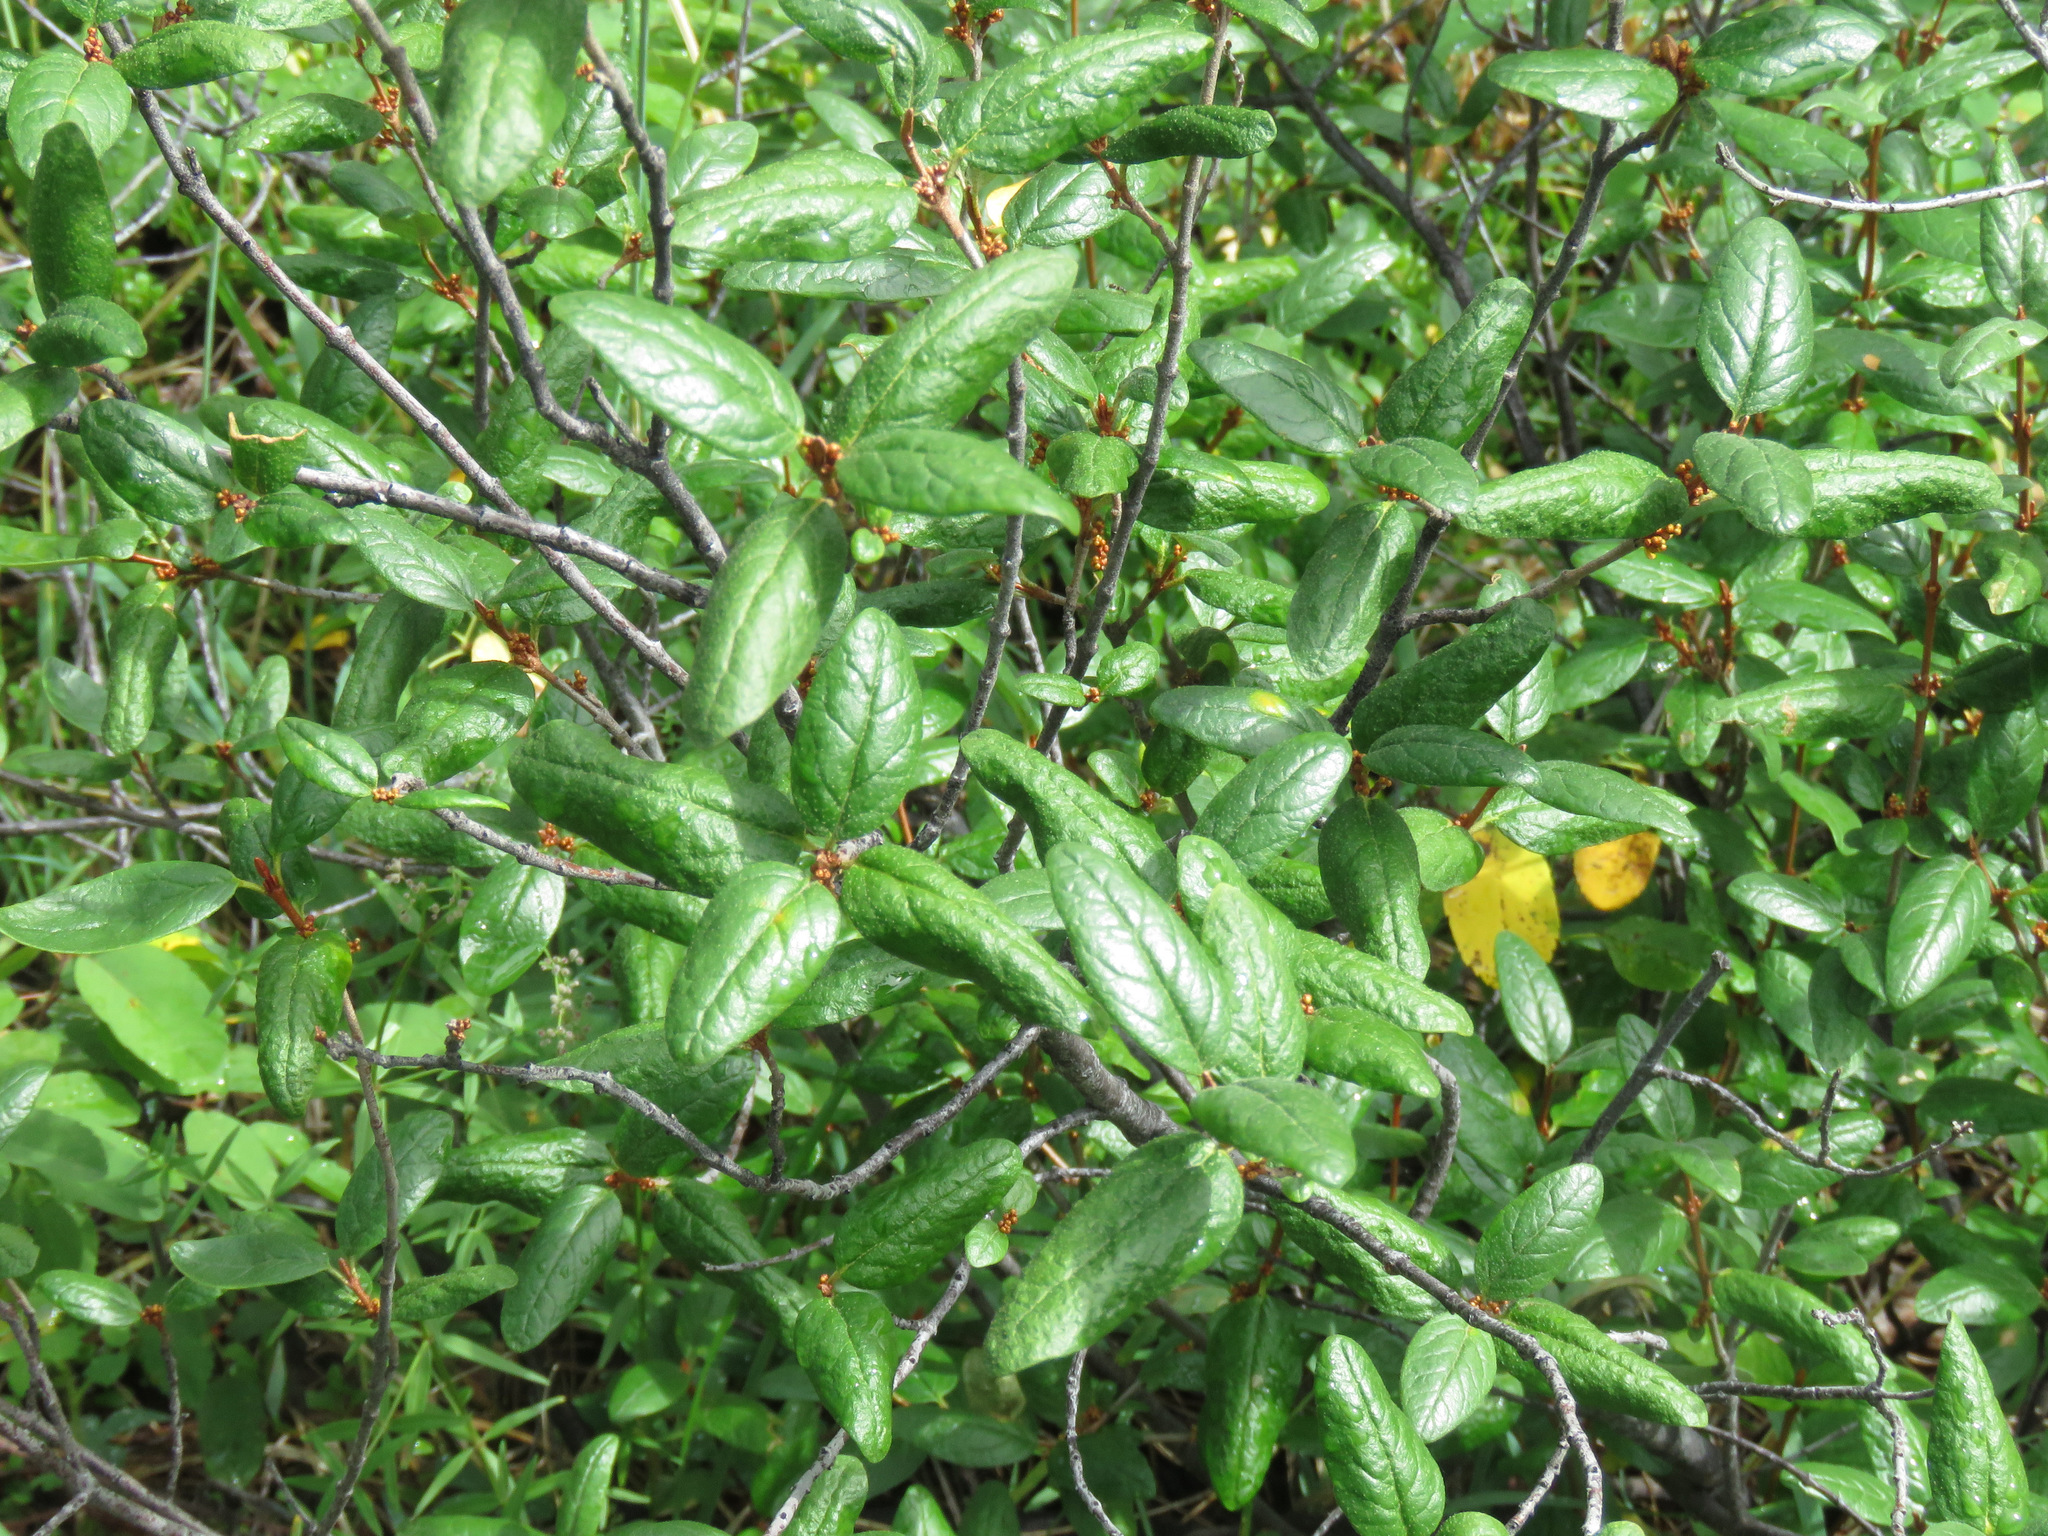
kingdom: Plantae
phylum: Tracheophyta
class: Magnoliopsida
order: Rosales
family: Elaeagnaceae
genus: Shepherdia
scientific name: Shepherdia canadensis
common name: Soapberry
